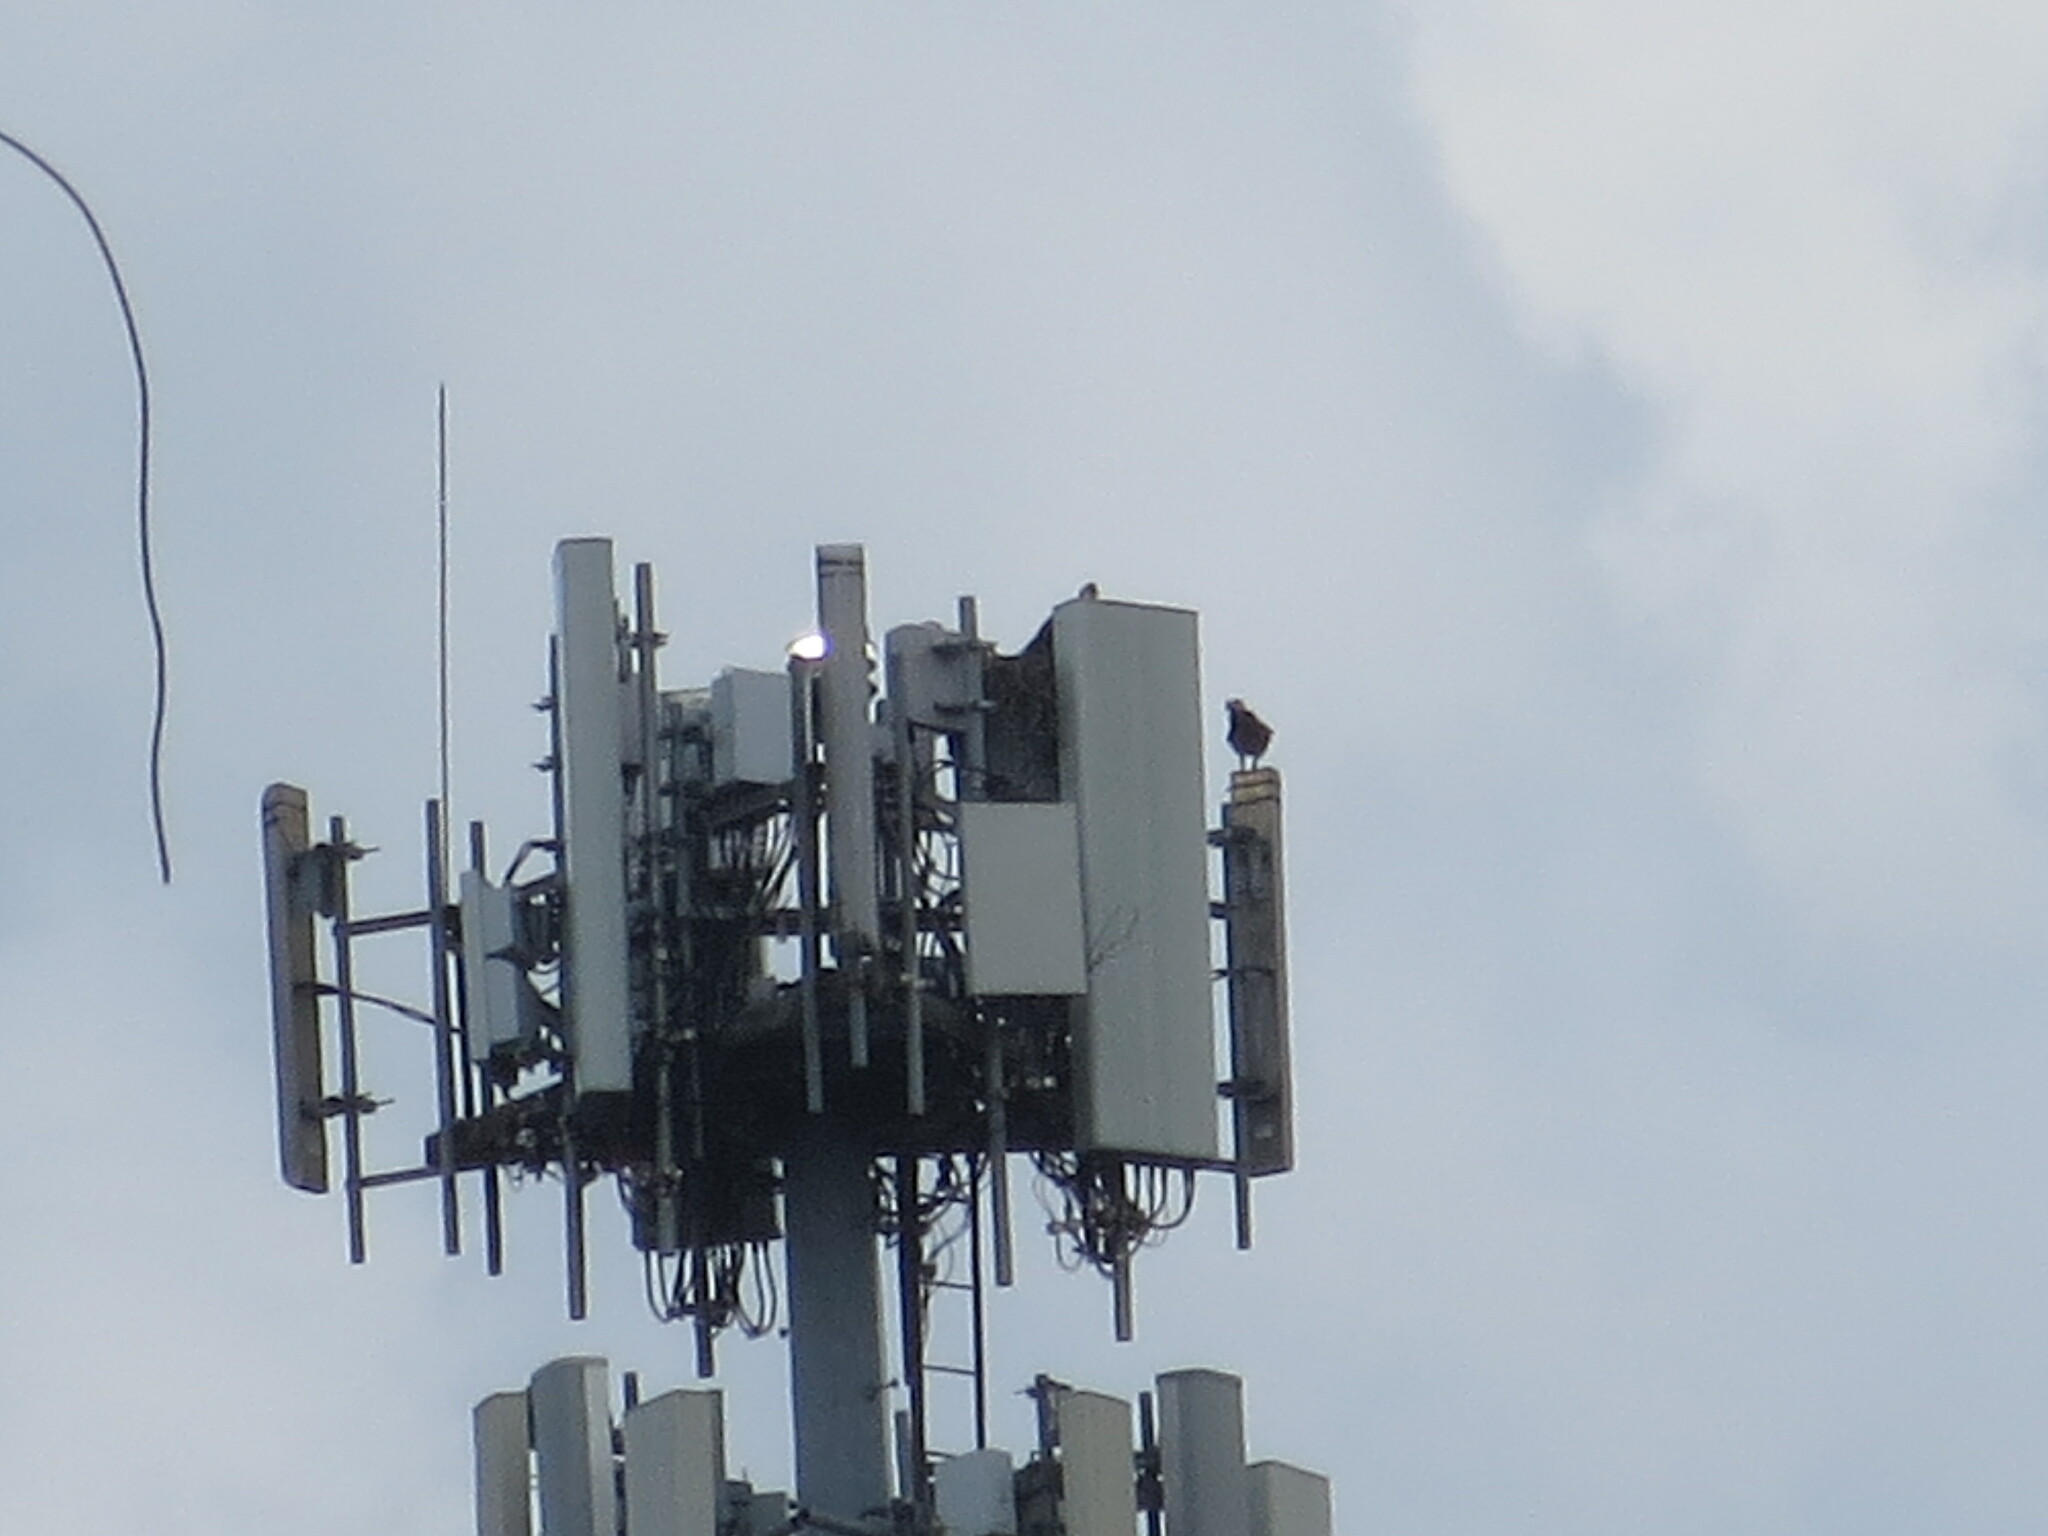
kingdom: Animalia
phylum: Chordata
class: Aves
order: Accipitriformes
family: Pandionidae
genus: Pandion
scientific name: Pandion haliaetus
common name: Osprey
